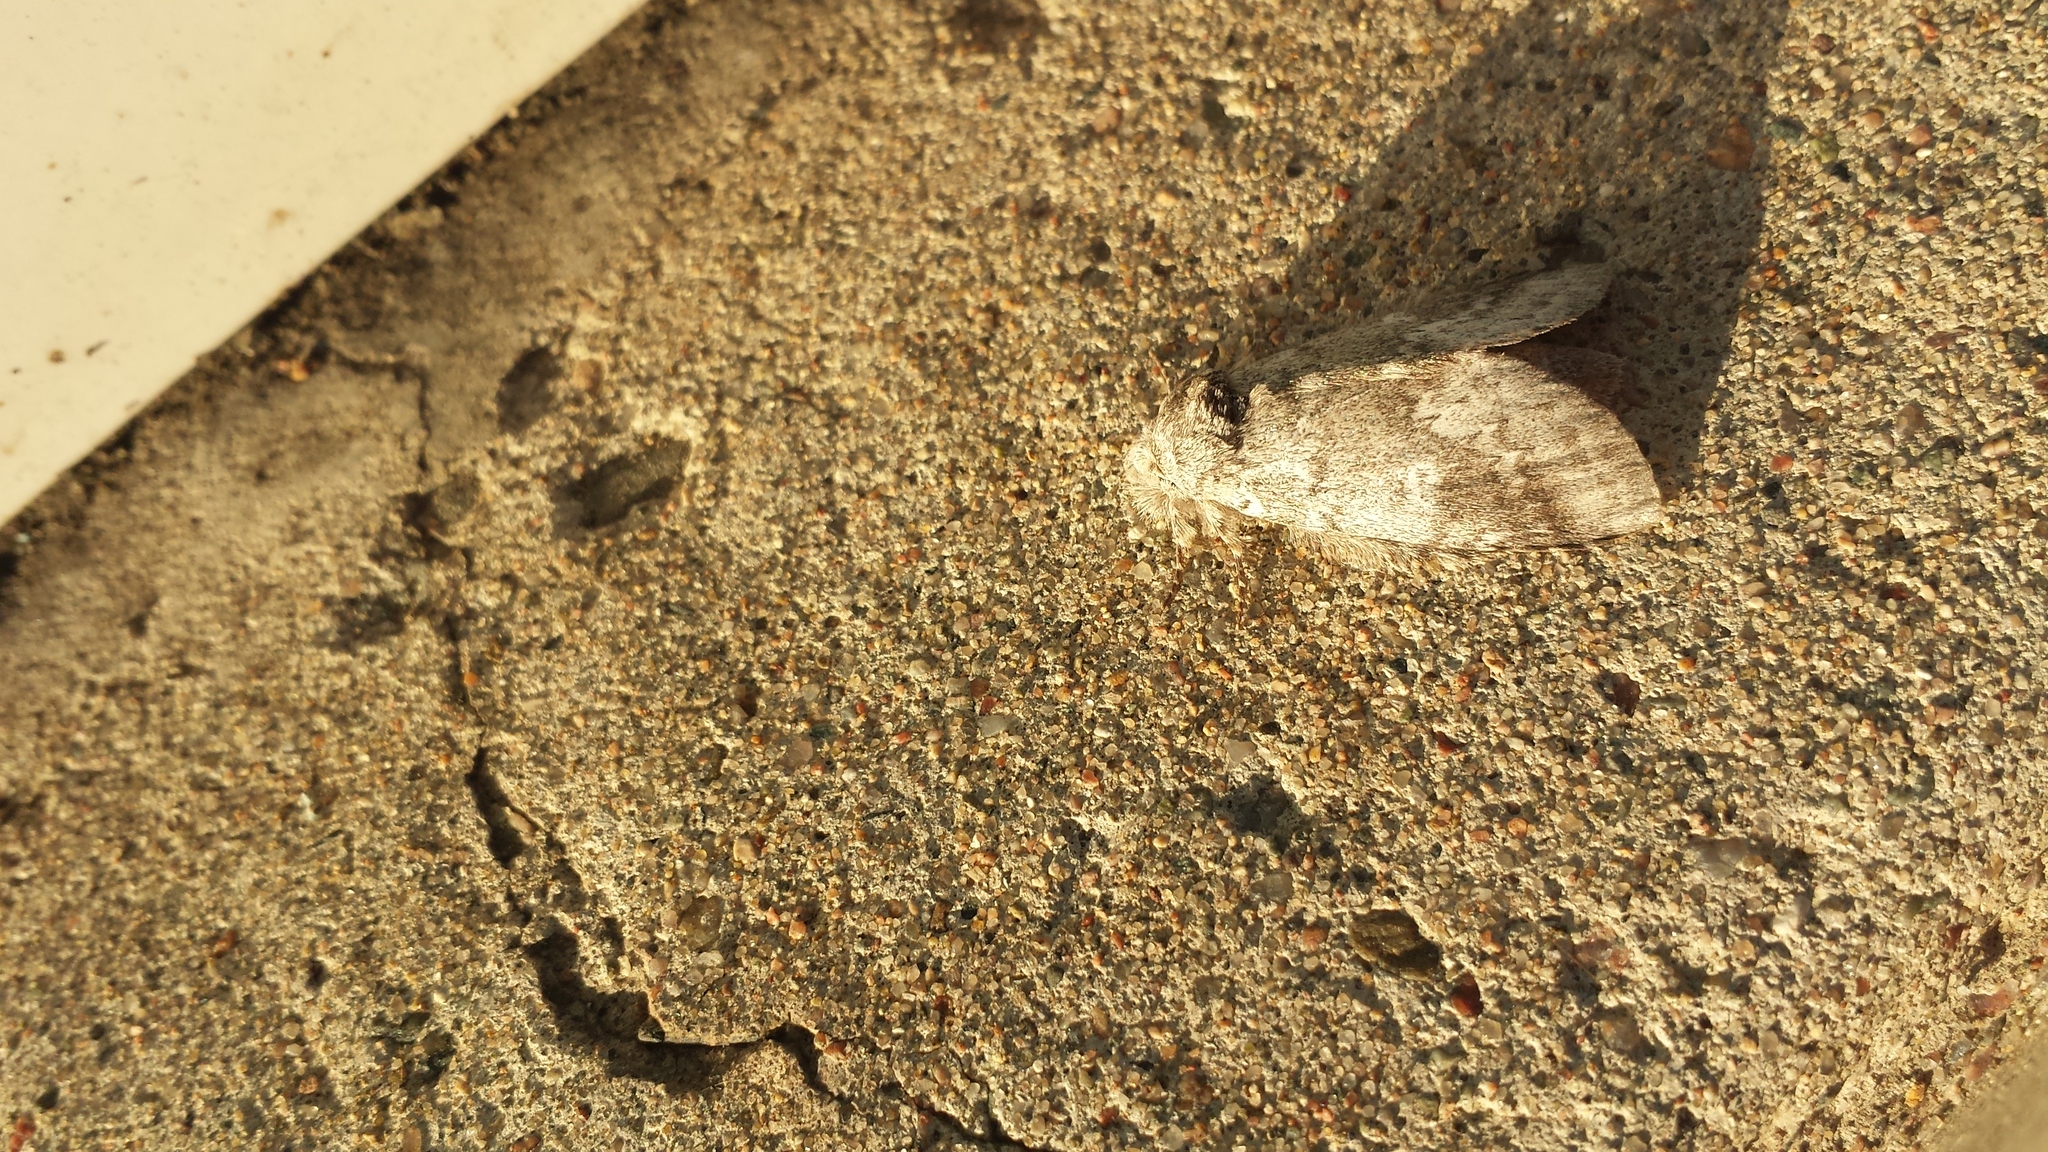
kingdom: Animalia
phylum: Arthropoda
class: Insecta
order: Lepidoptera
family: Notodontidae
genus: Lochmaeus
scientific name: Lochmaeus manteo
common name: Variable oakleaf caterpillar moth
